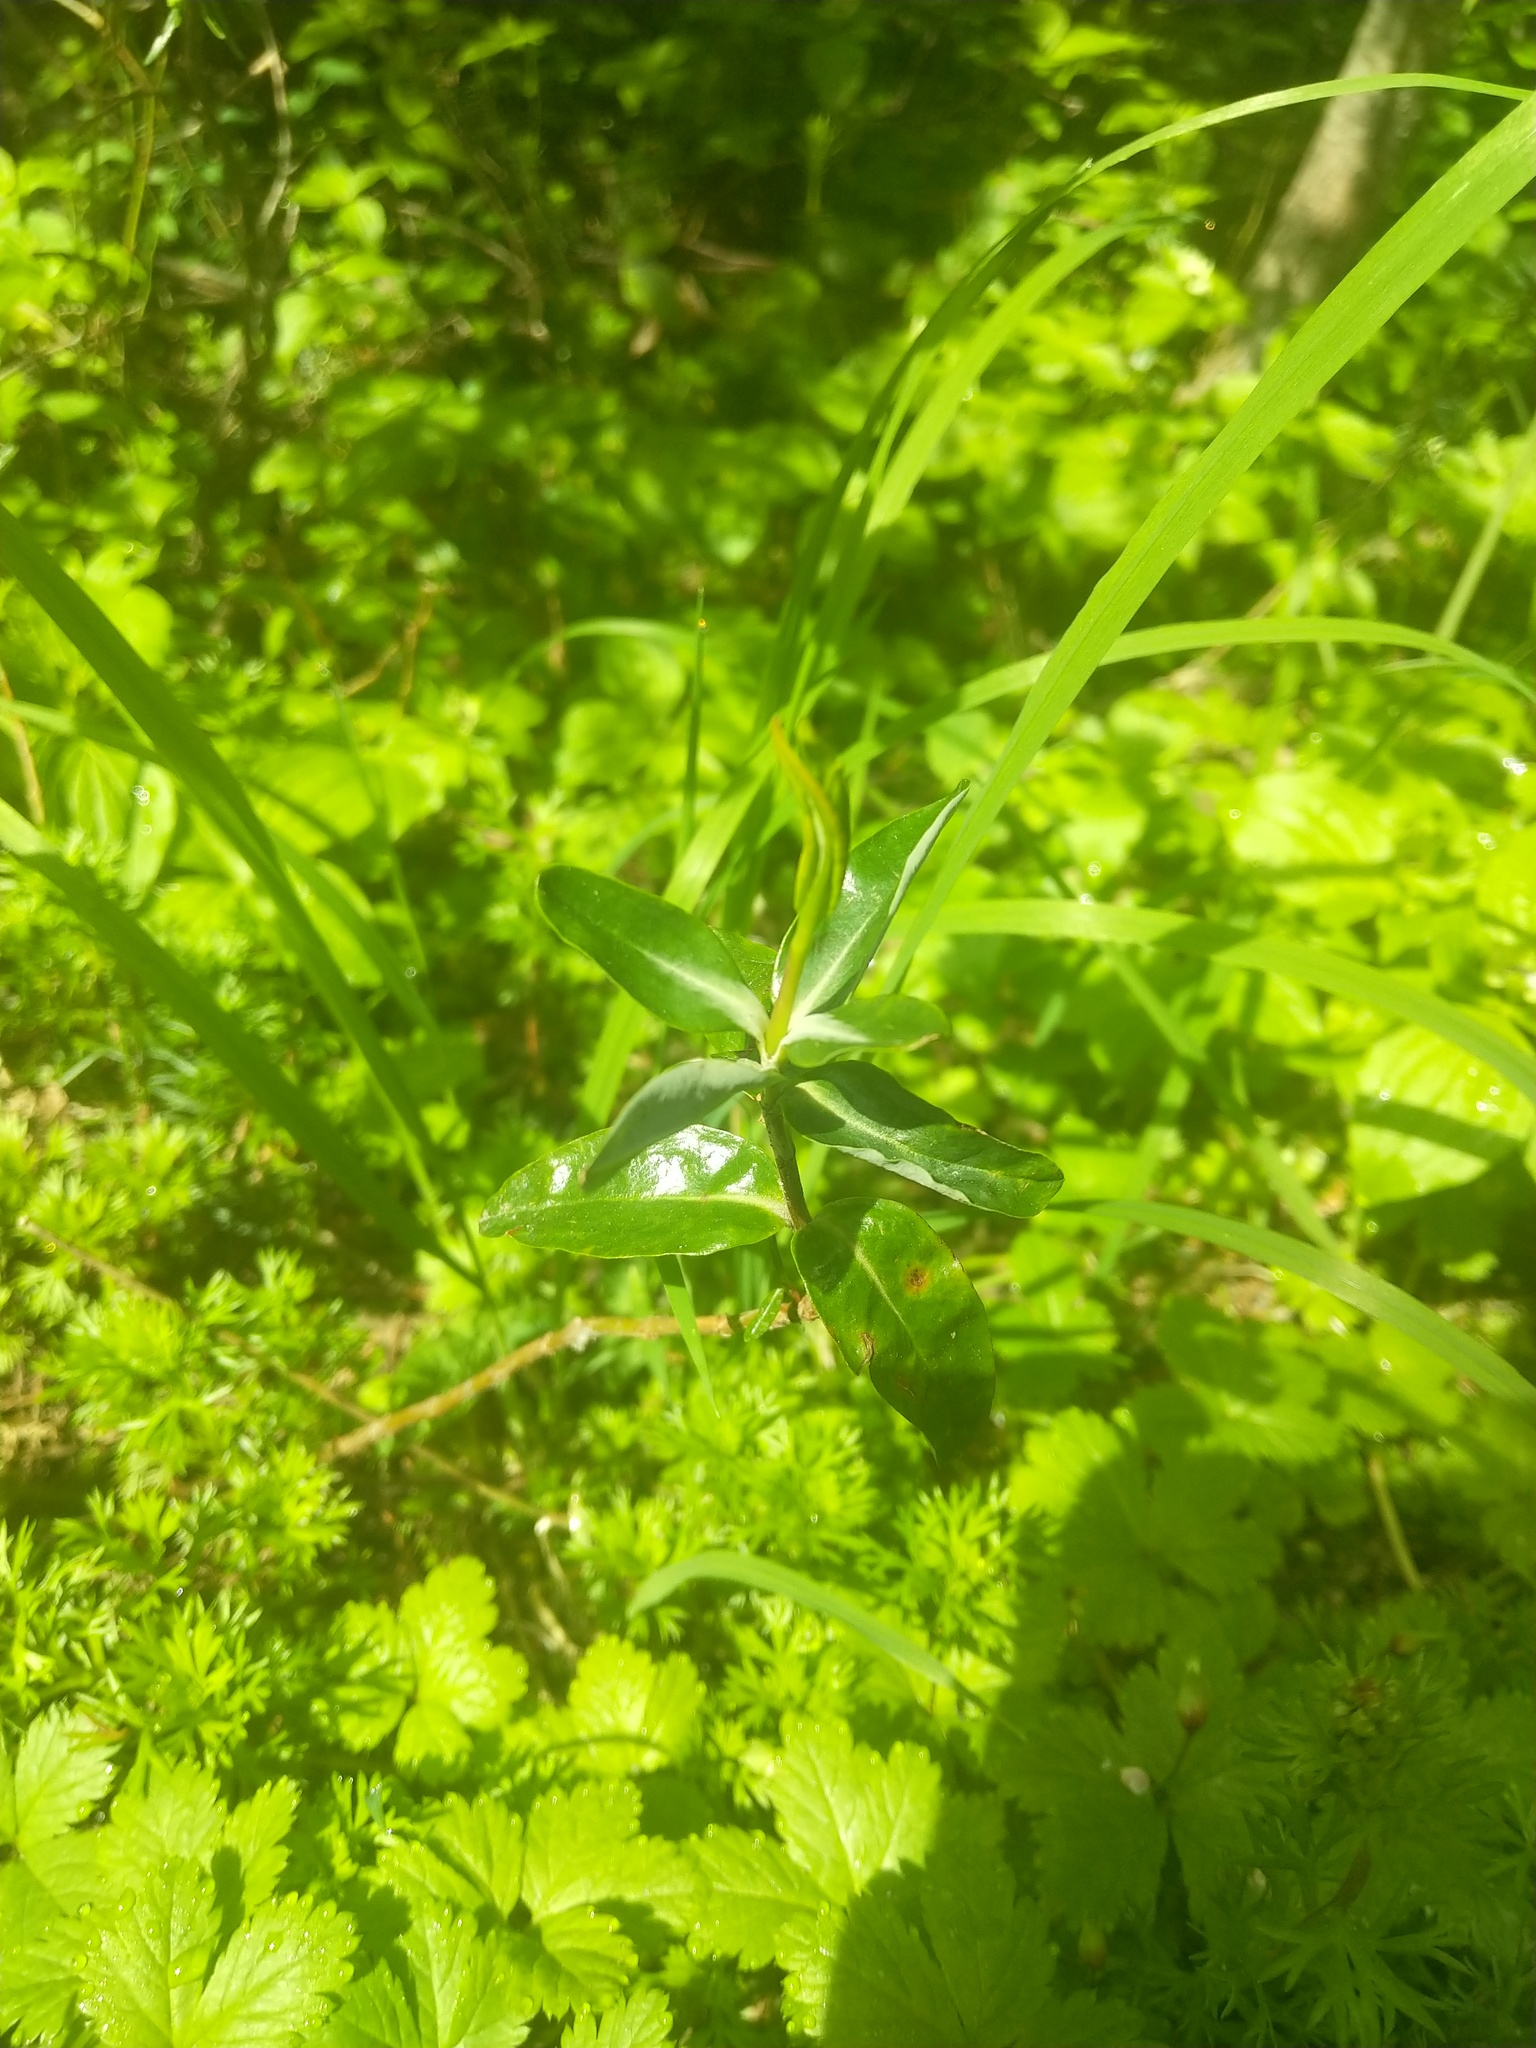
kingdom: Plantae
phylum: Tracheophyta
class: Magnoliopsida
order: Ericales
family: Ericaceae
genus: Kalmia
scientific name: Kalmia microphylla
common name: Alpine bog laurel
